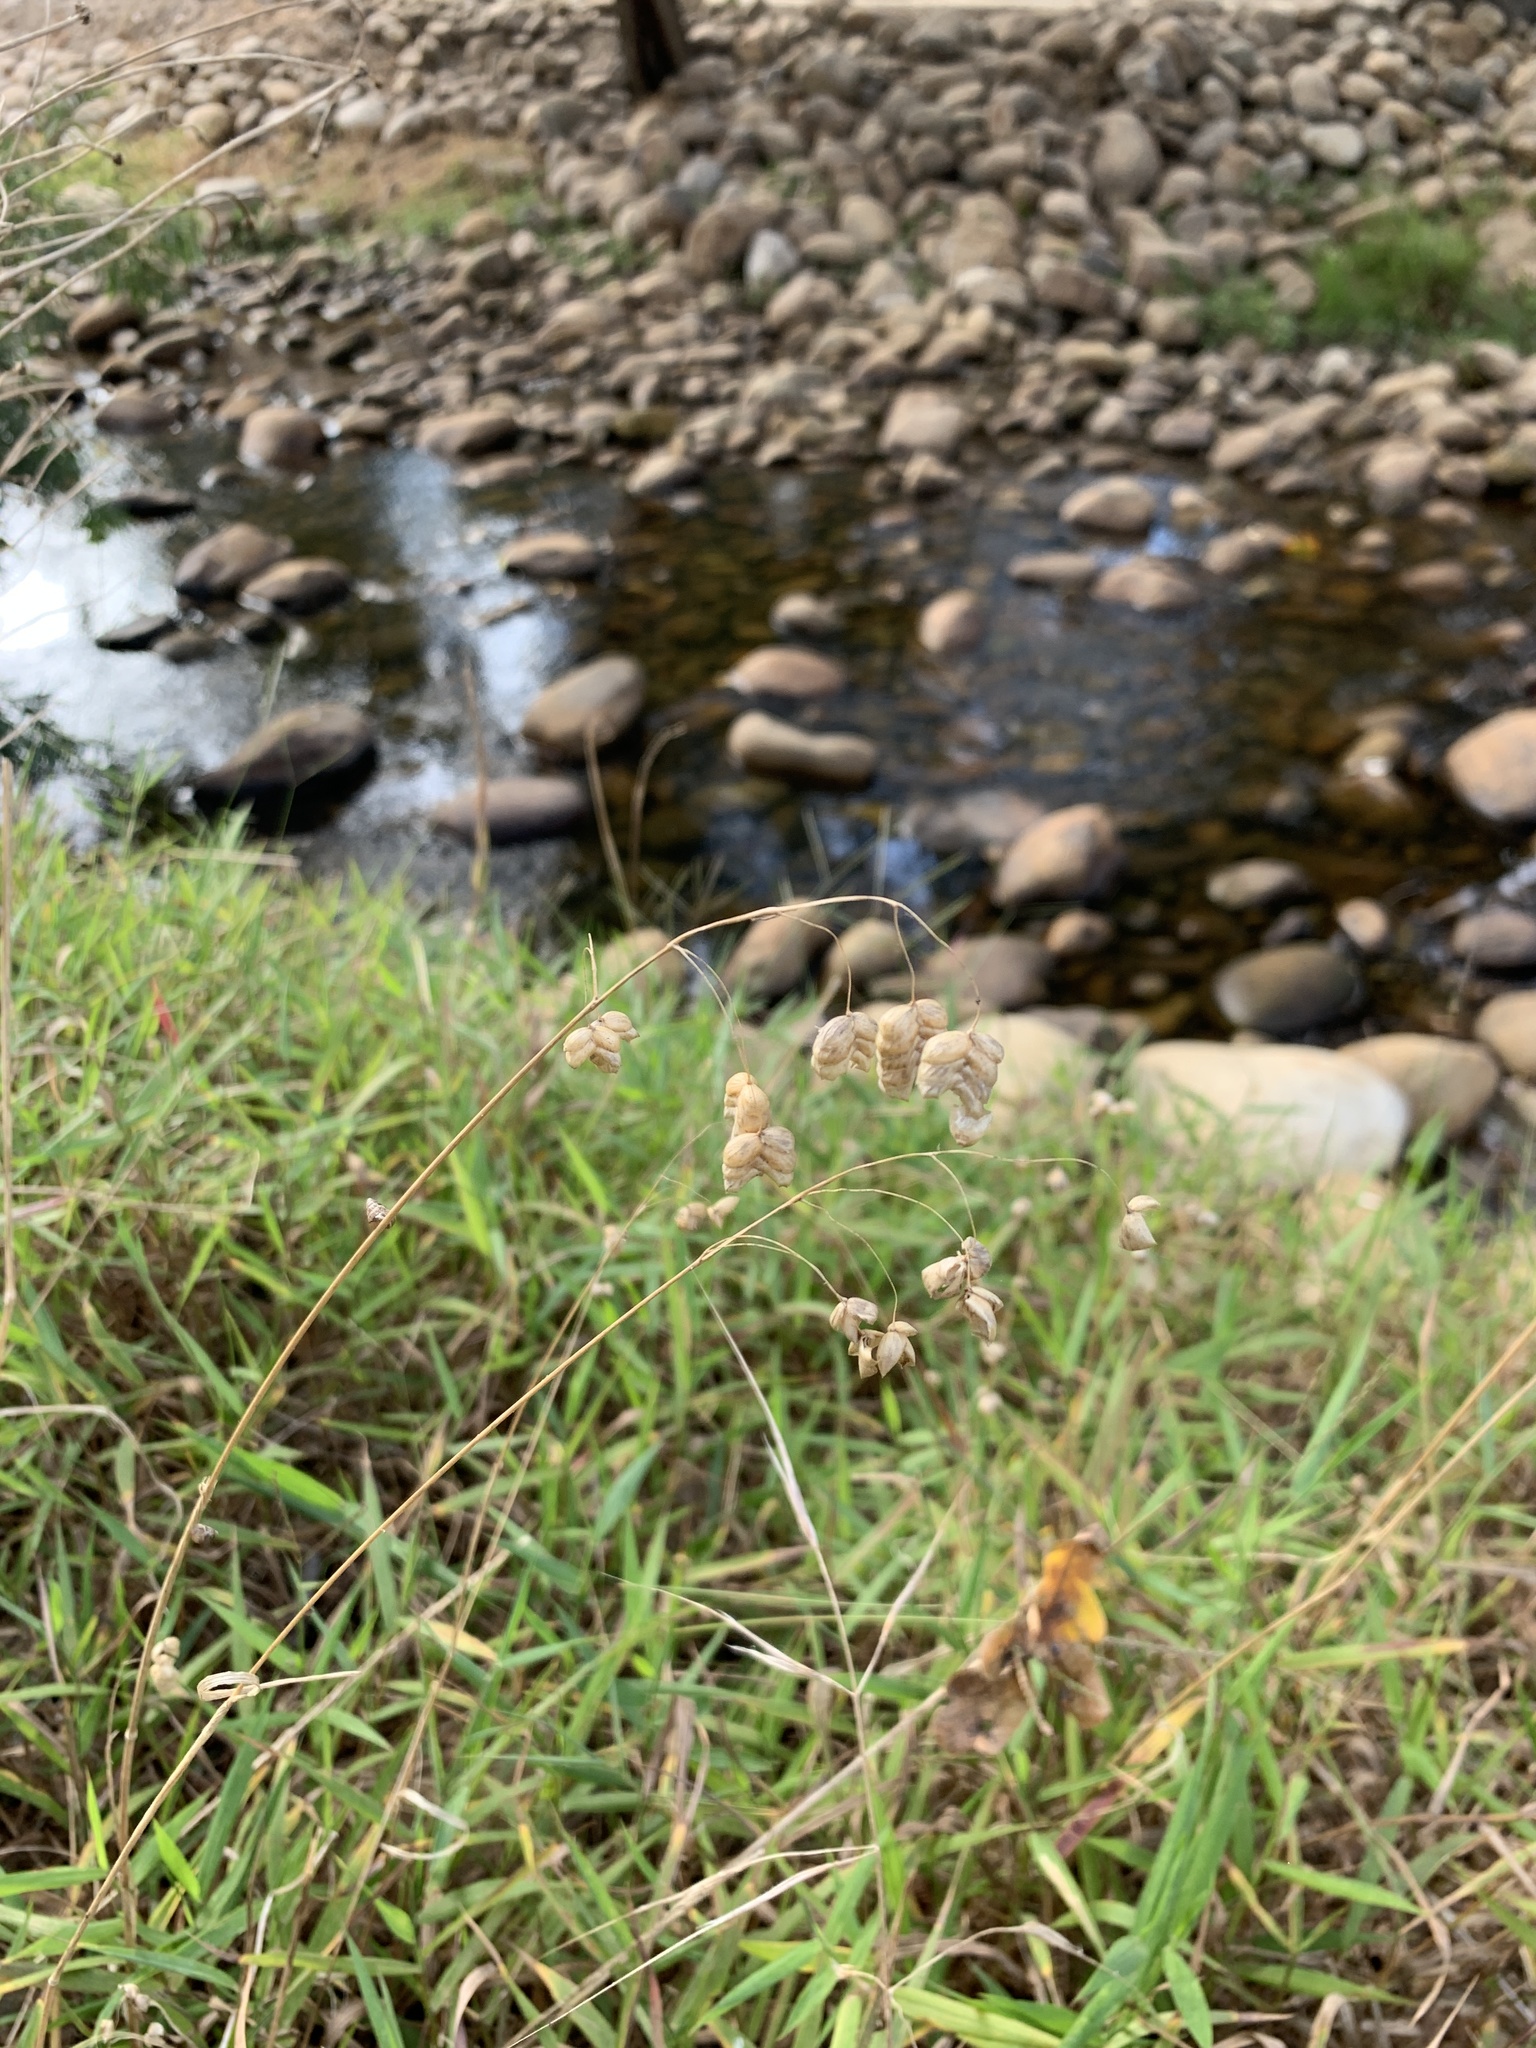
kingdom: Plantae
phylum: Tracheophyta
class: Liliopsida
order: Poales
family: Poaceae
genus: Briza
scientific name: Briza maxima
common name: Big quakinggrass
